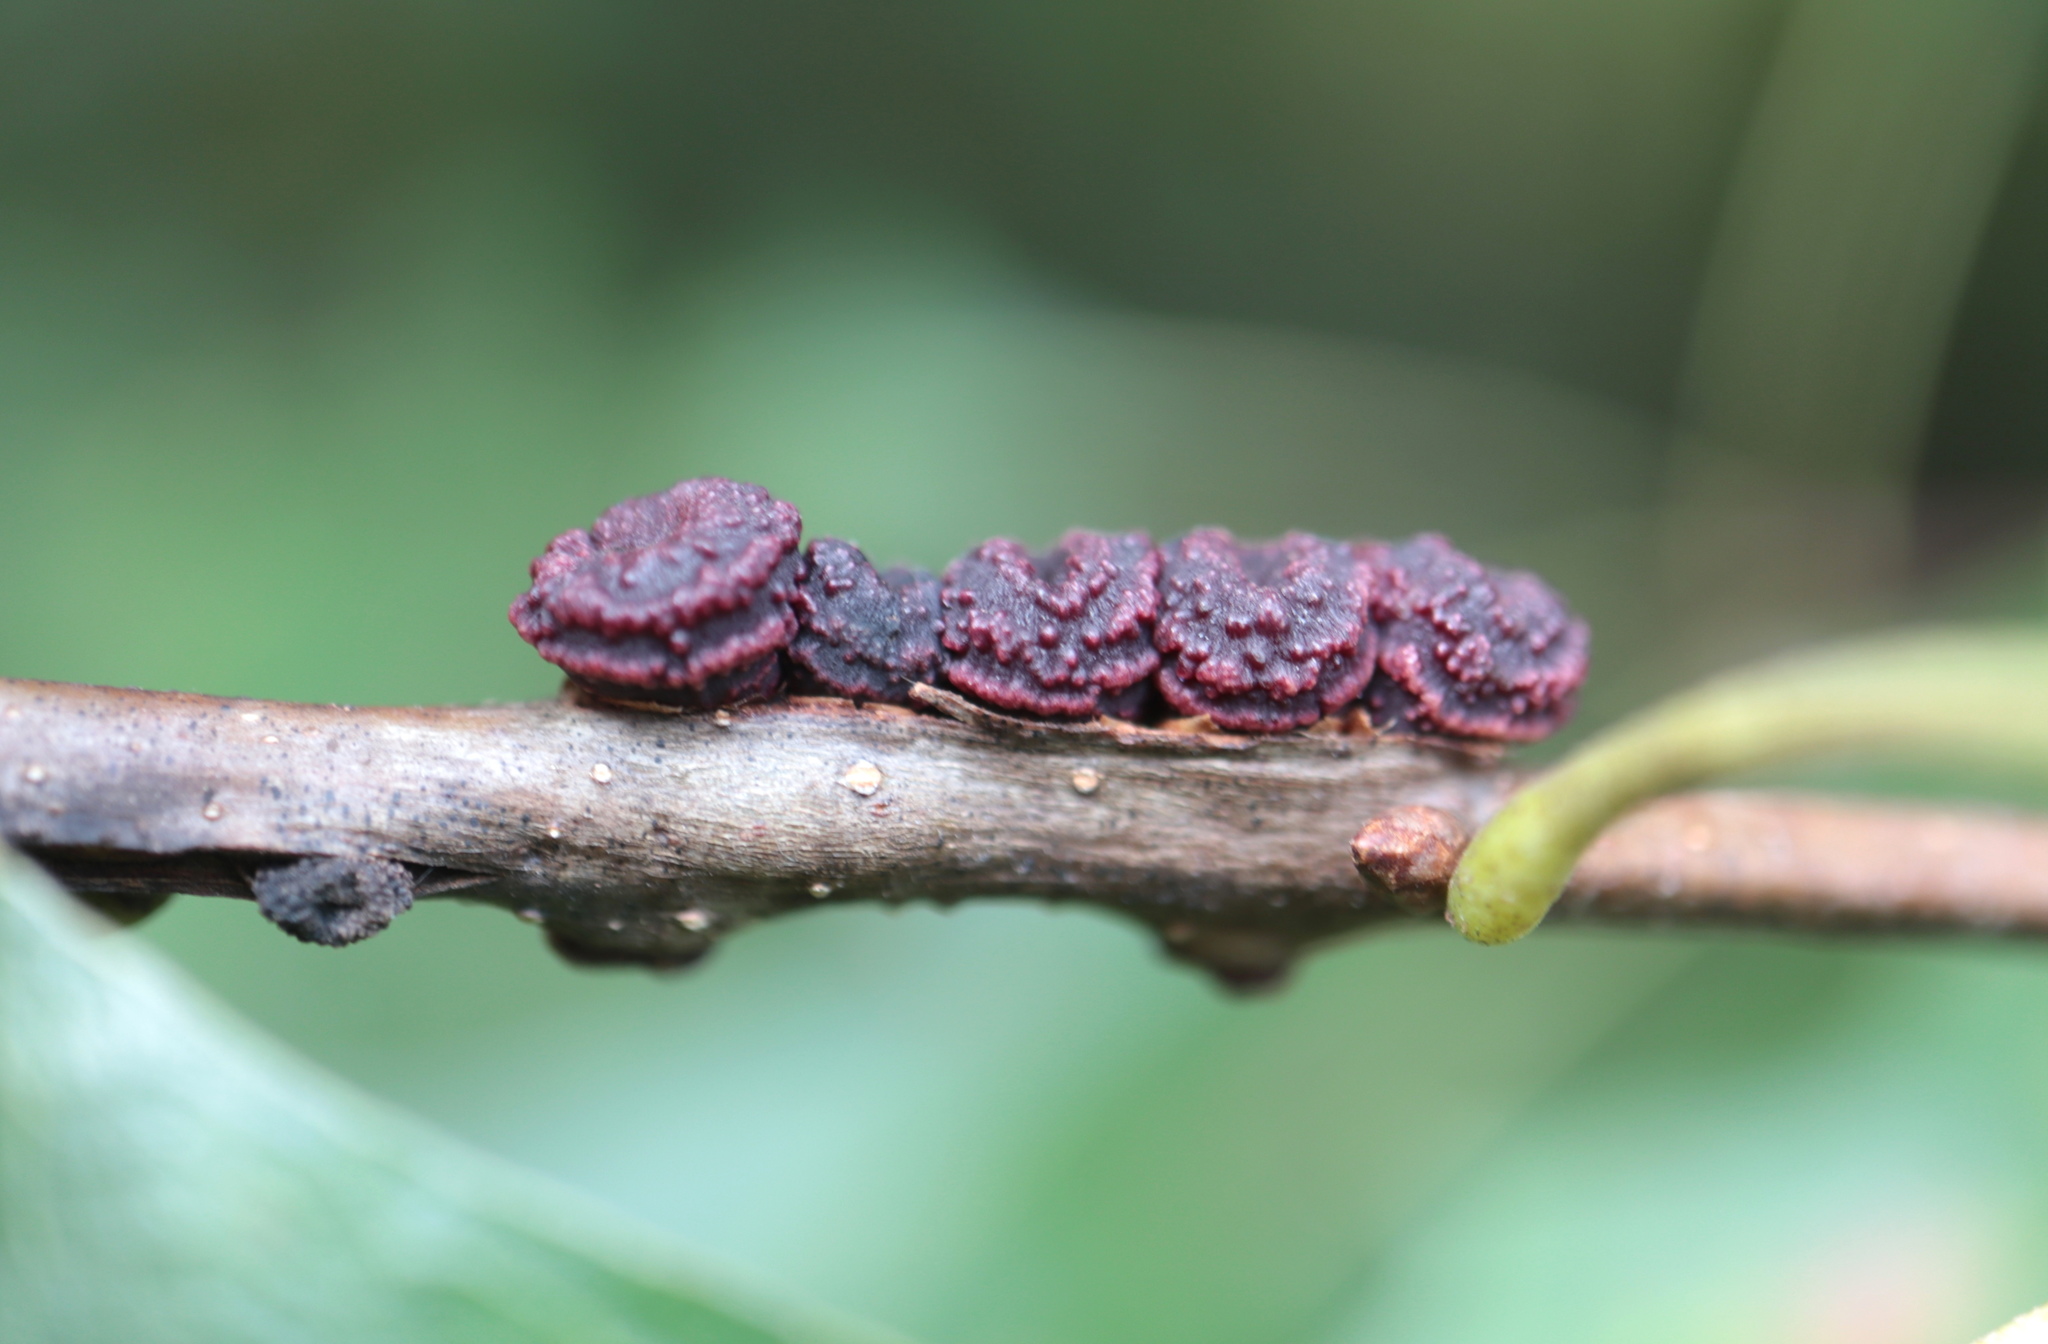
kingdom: Animalia
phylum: Arthropoda
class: Insecta
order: Hymenoptera
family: Cynipidae
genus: Kokkocynips
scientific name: Kokkocynips difficilis
